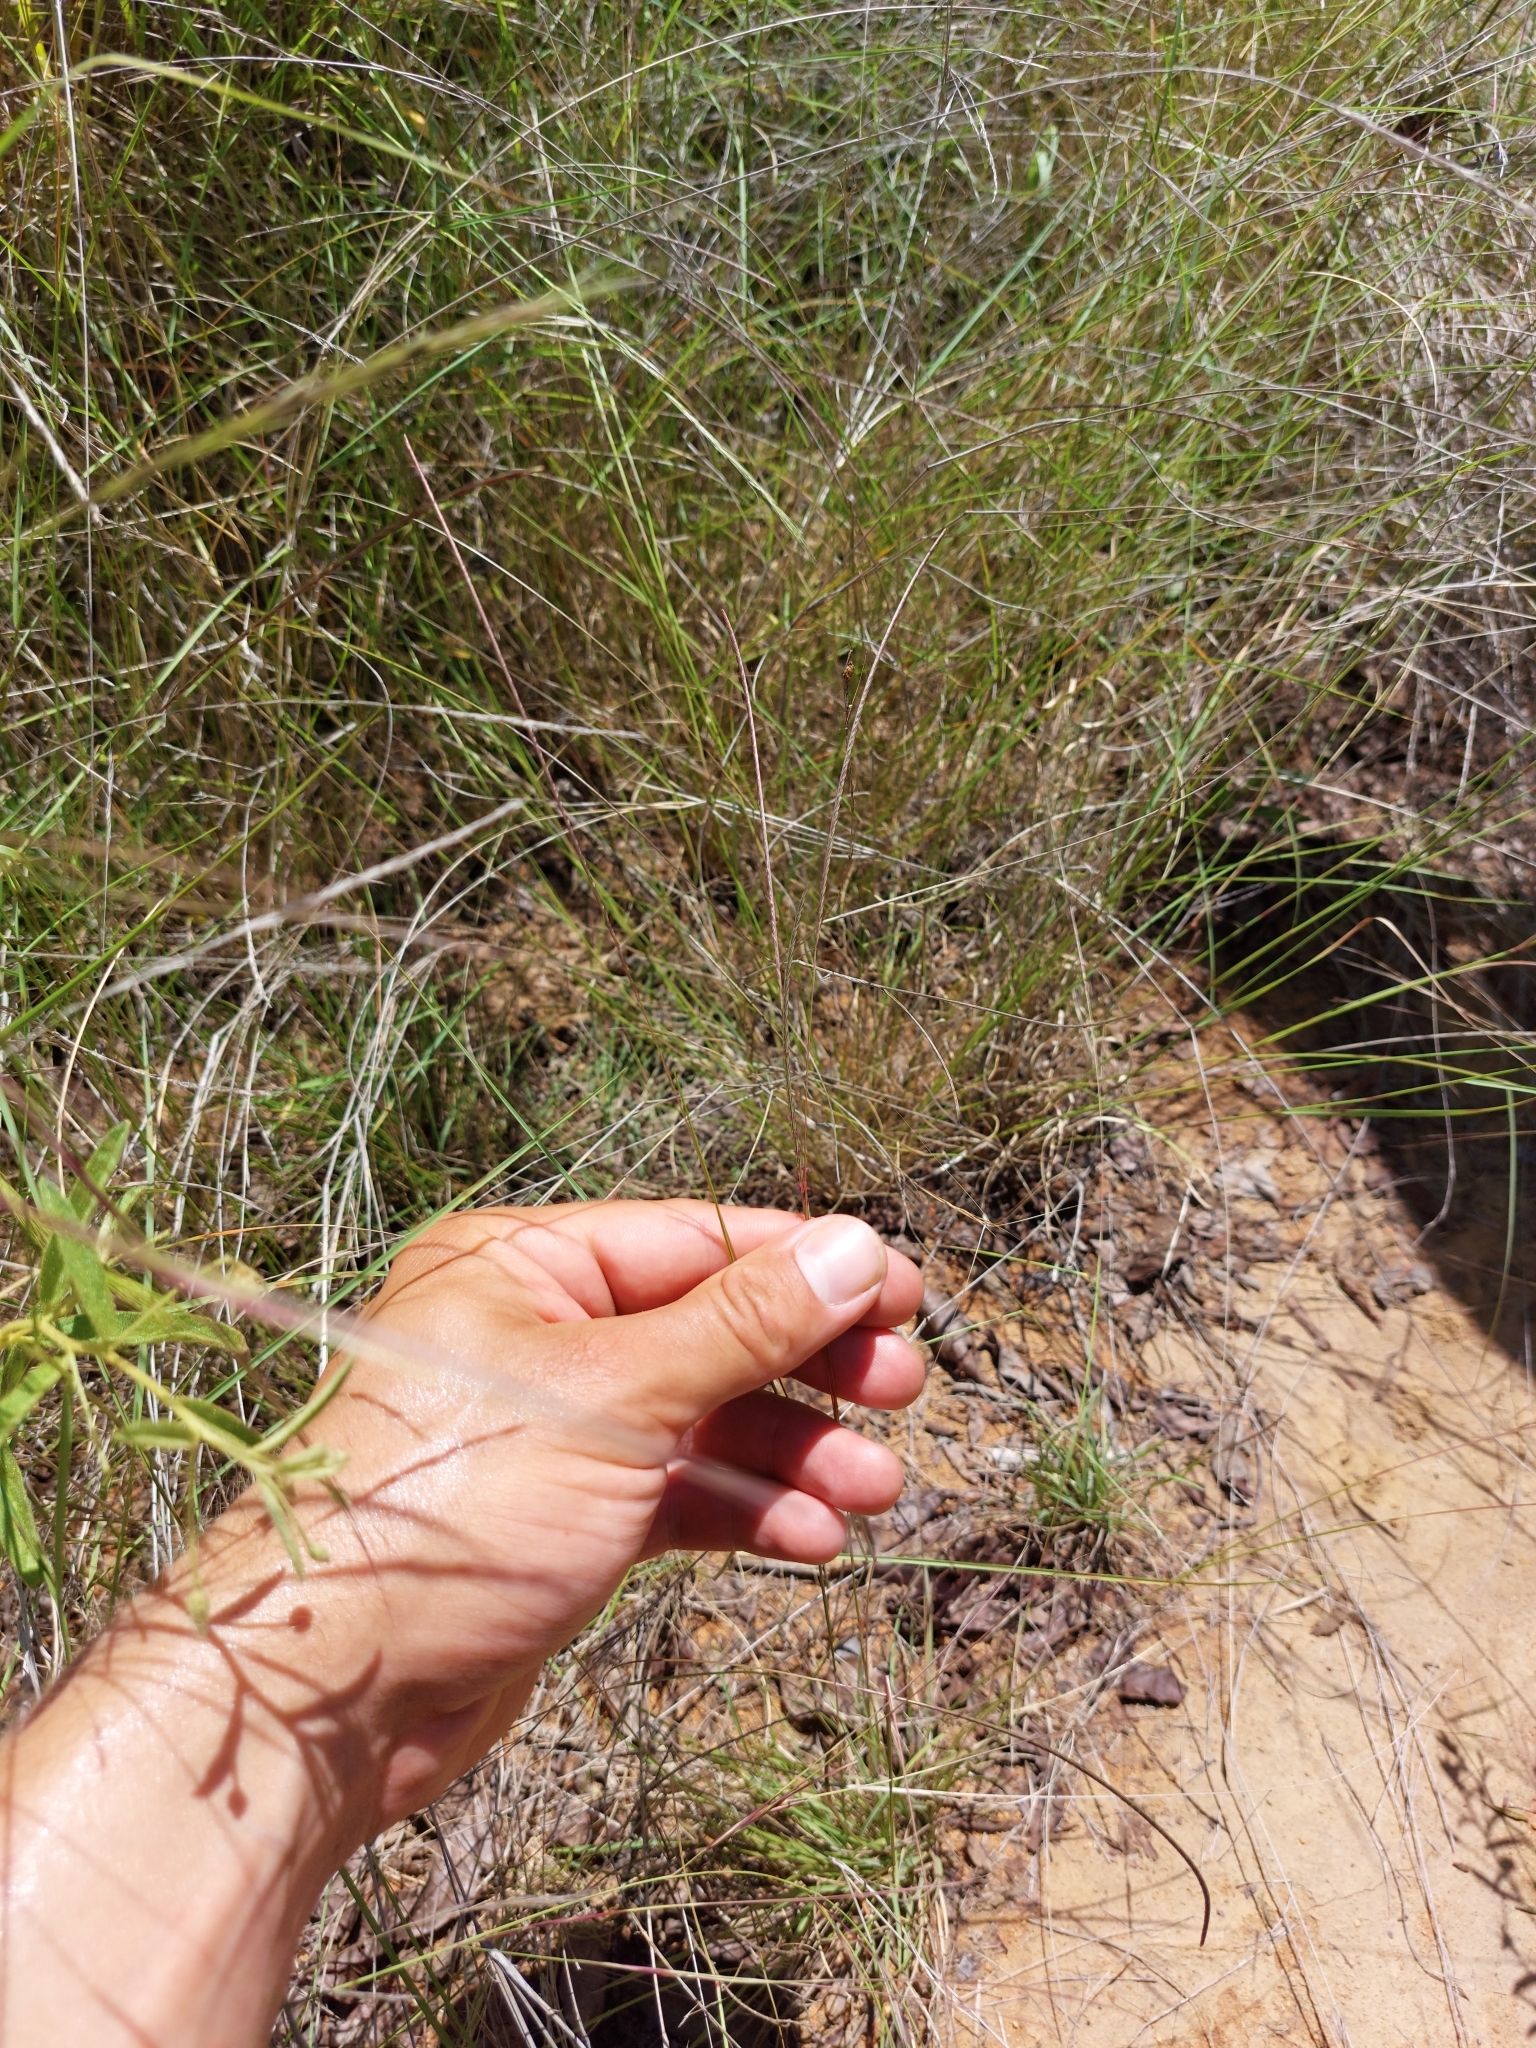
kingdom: Plantae
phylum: Tracheophyta
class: Liliopsida
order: Poales
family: Poaceae
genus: Microchloa
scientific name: Microchloa caffra
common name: Pincushion grass
